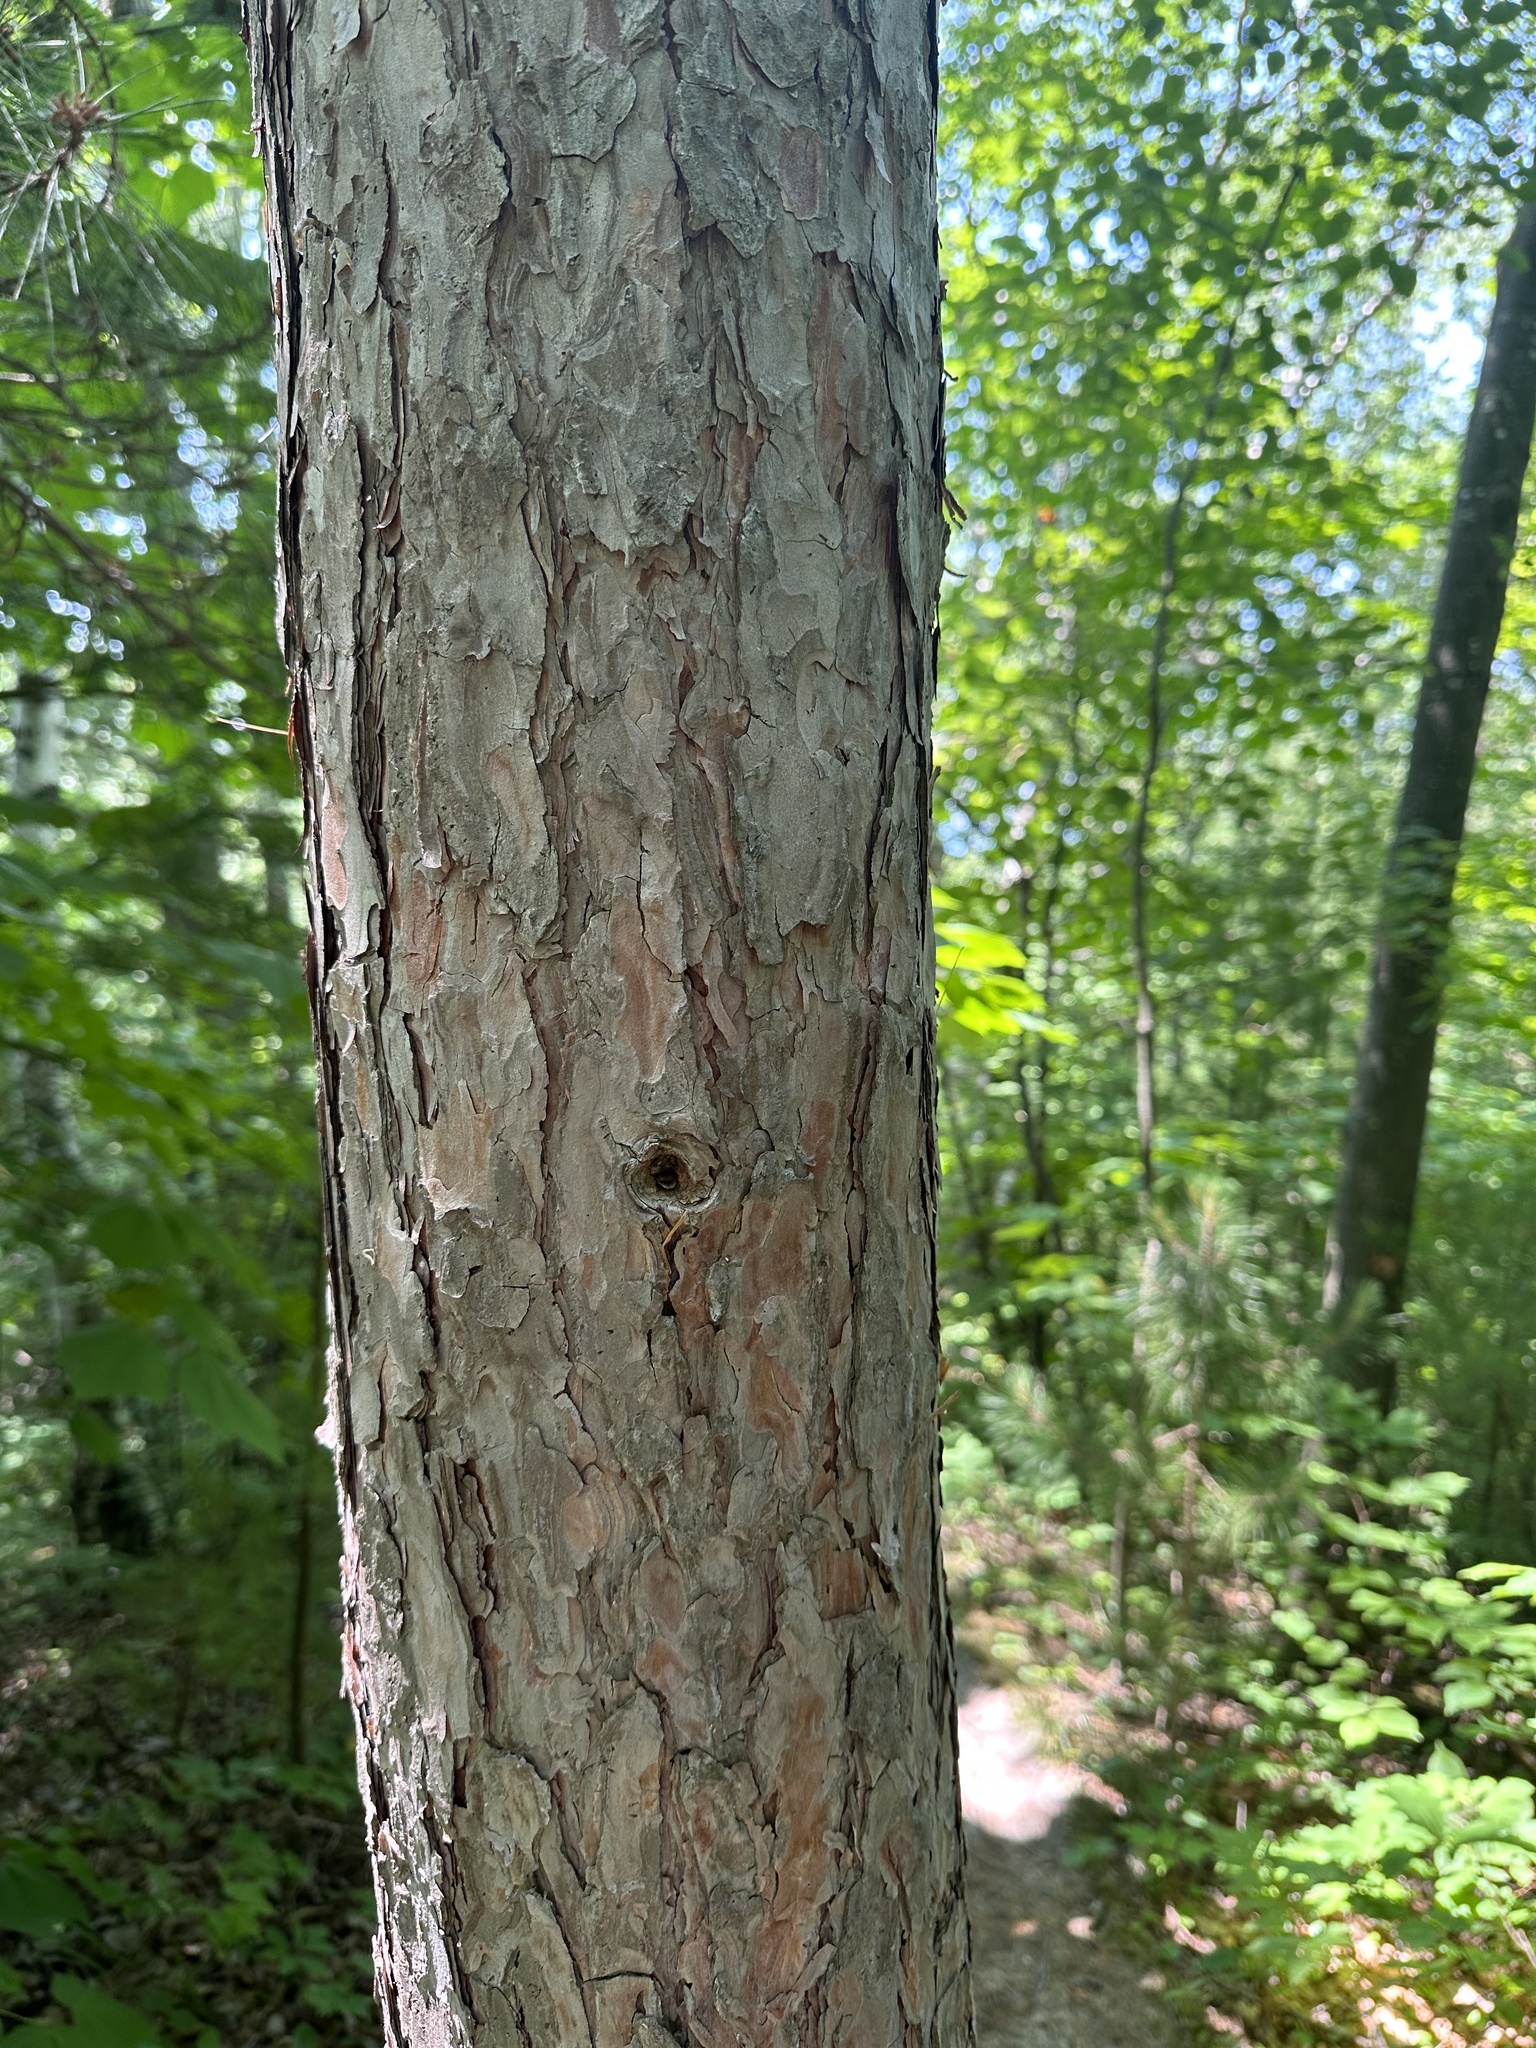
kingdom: Plantae
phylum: Tracheophyta
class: Pinopsida
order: Pinales
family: Pinaceae
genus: Pinus
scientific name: Pinus resinosa
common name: Norway pine
